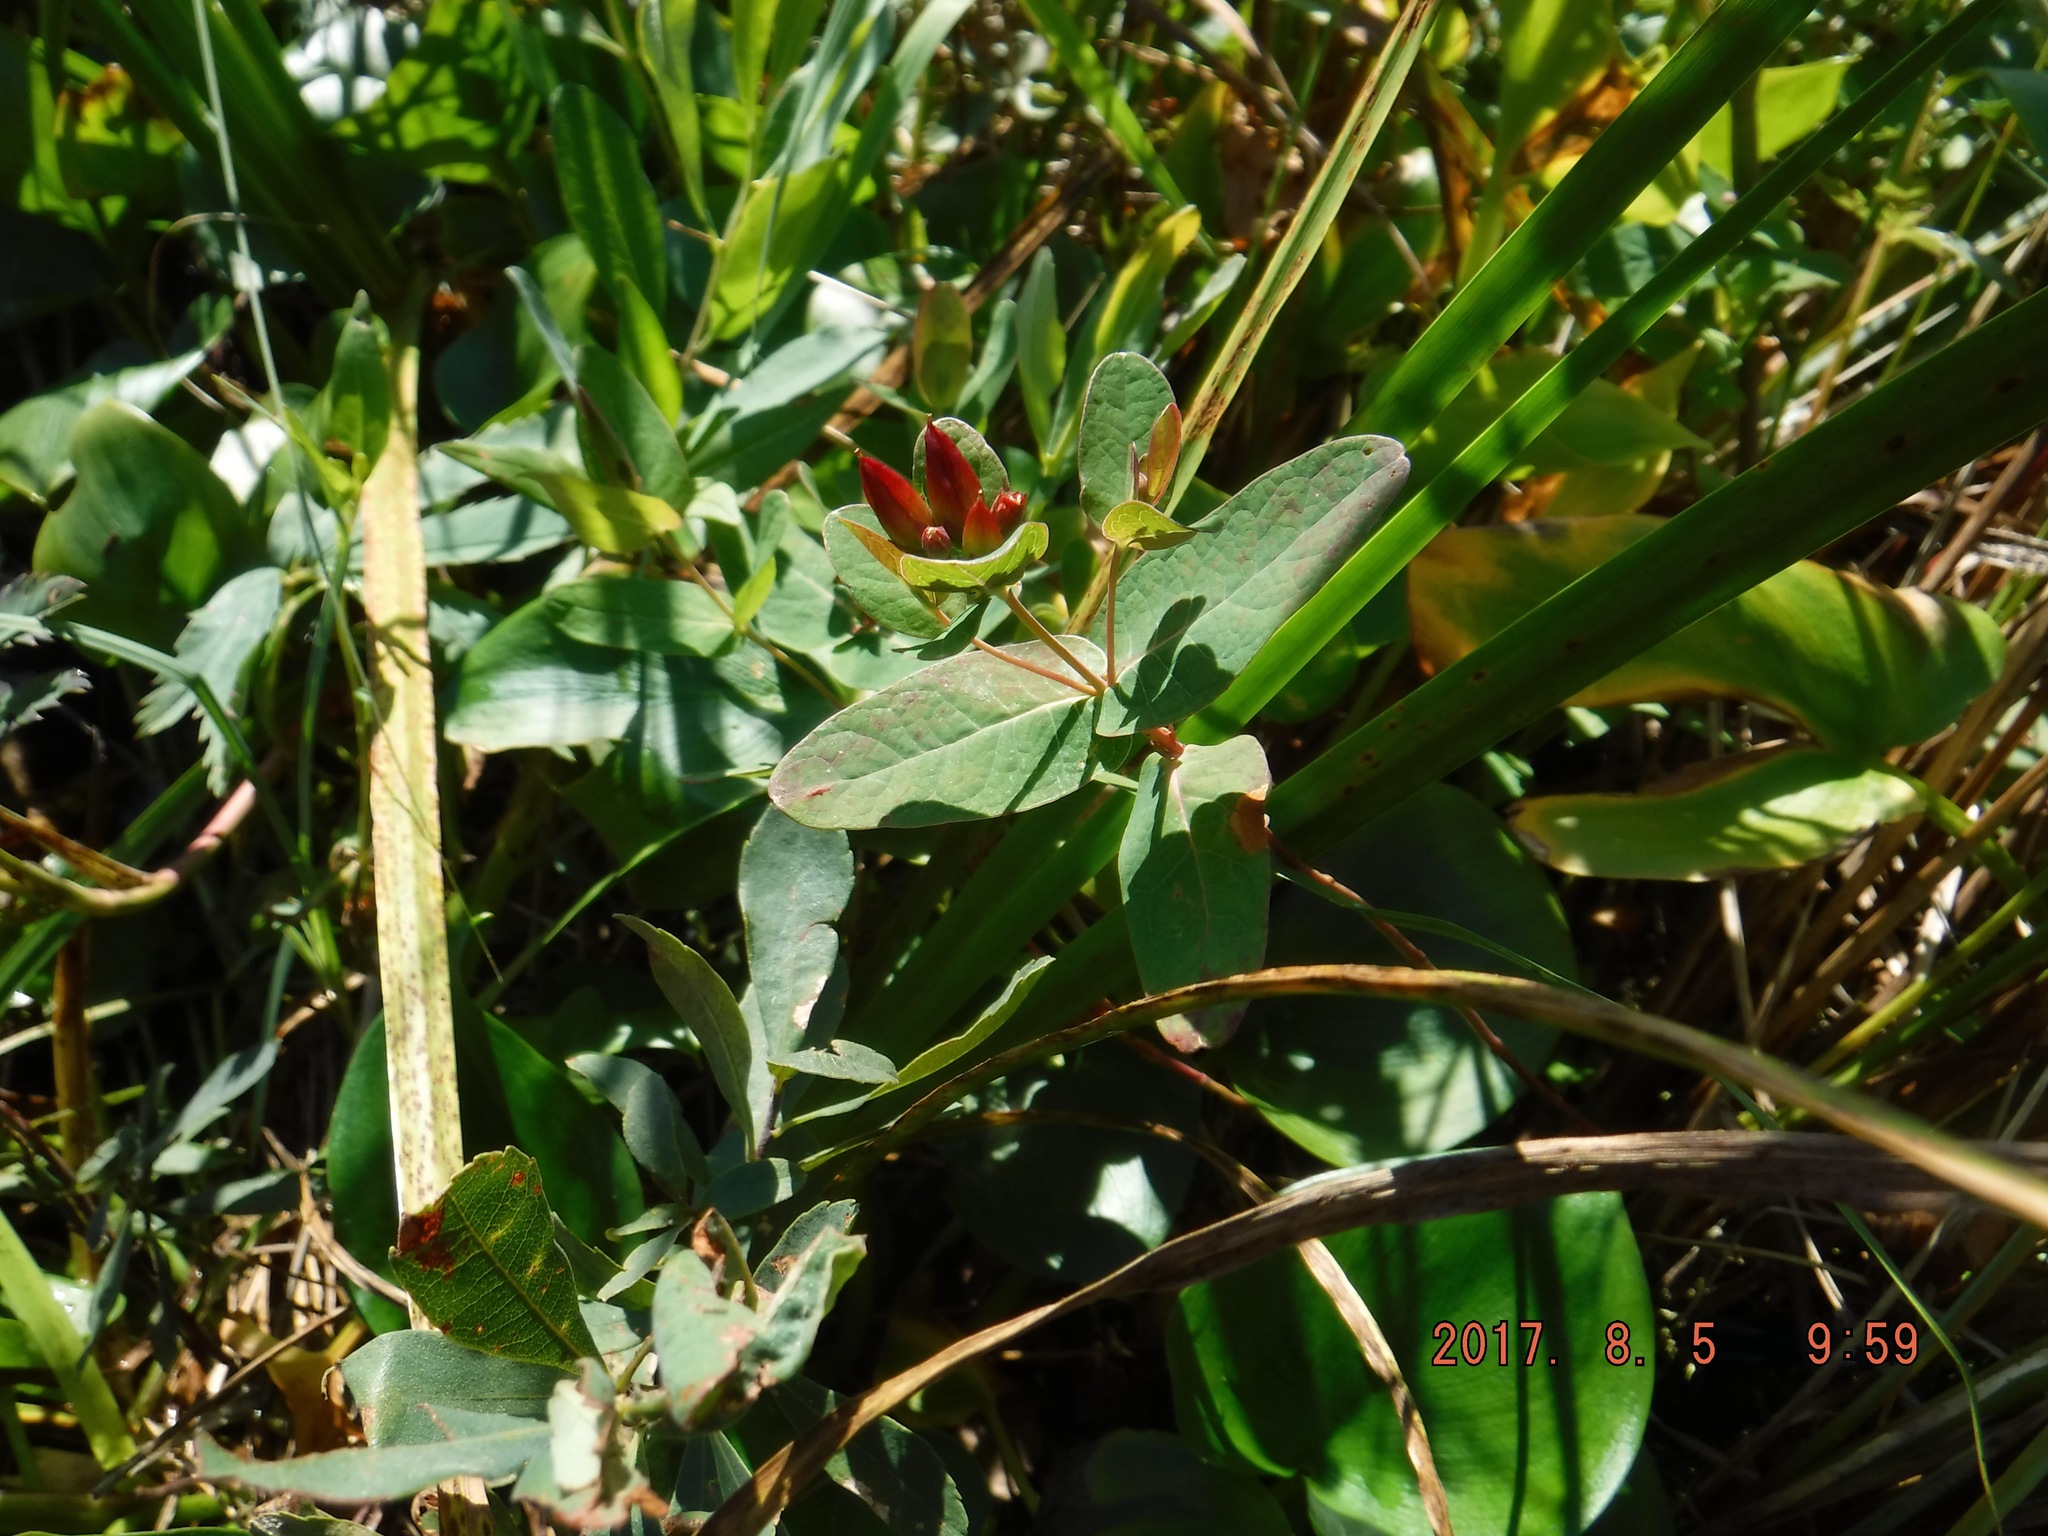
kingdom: Plantae
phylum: Tracheophyta
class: Magnoliopsida
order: Malpighiales
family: Hypericaceae
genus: Triadenum
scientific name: Triadenum fraseri
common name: Fraser's marsh st. johnswort
